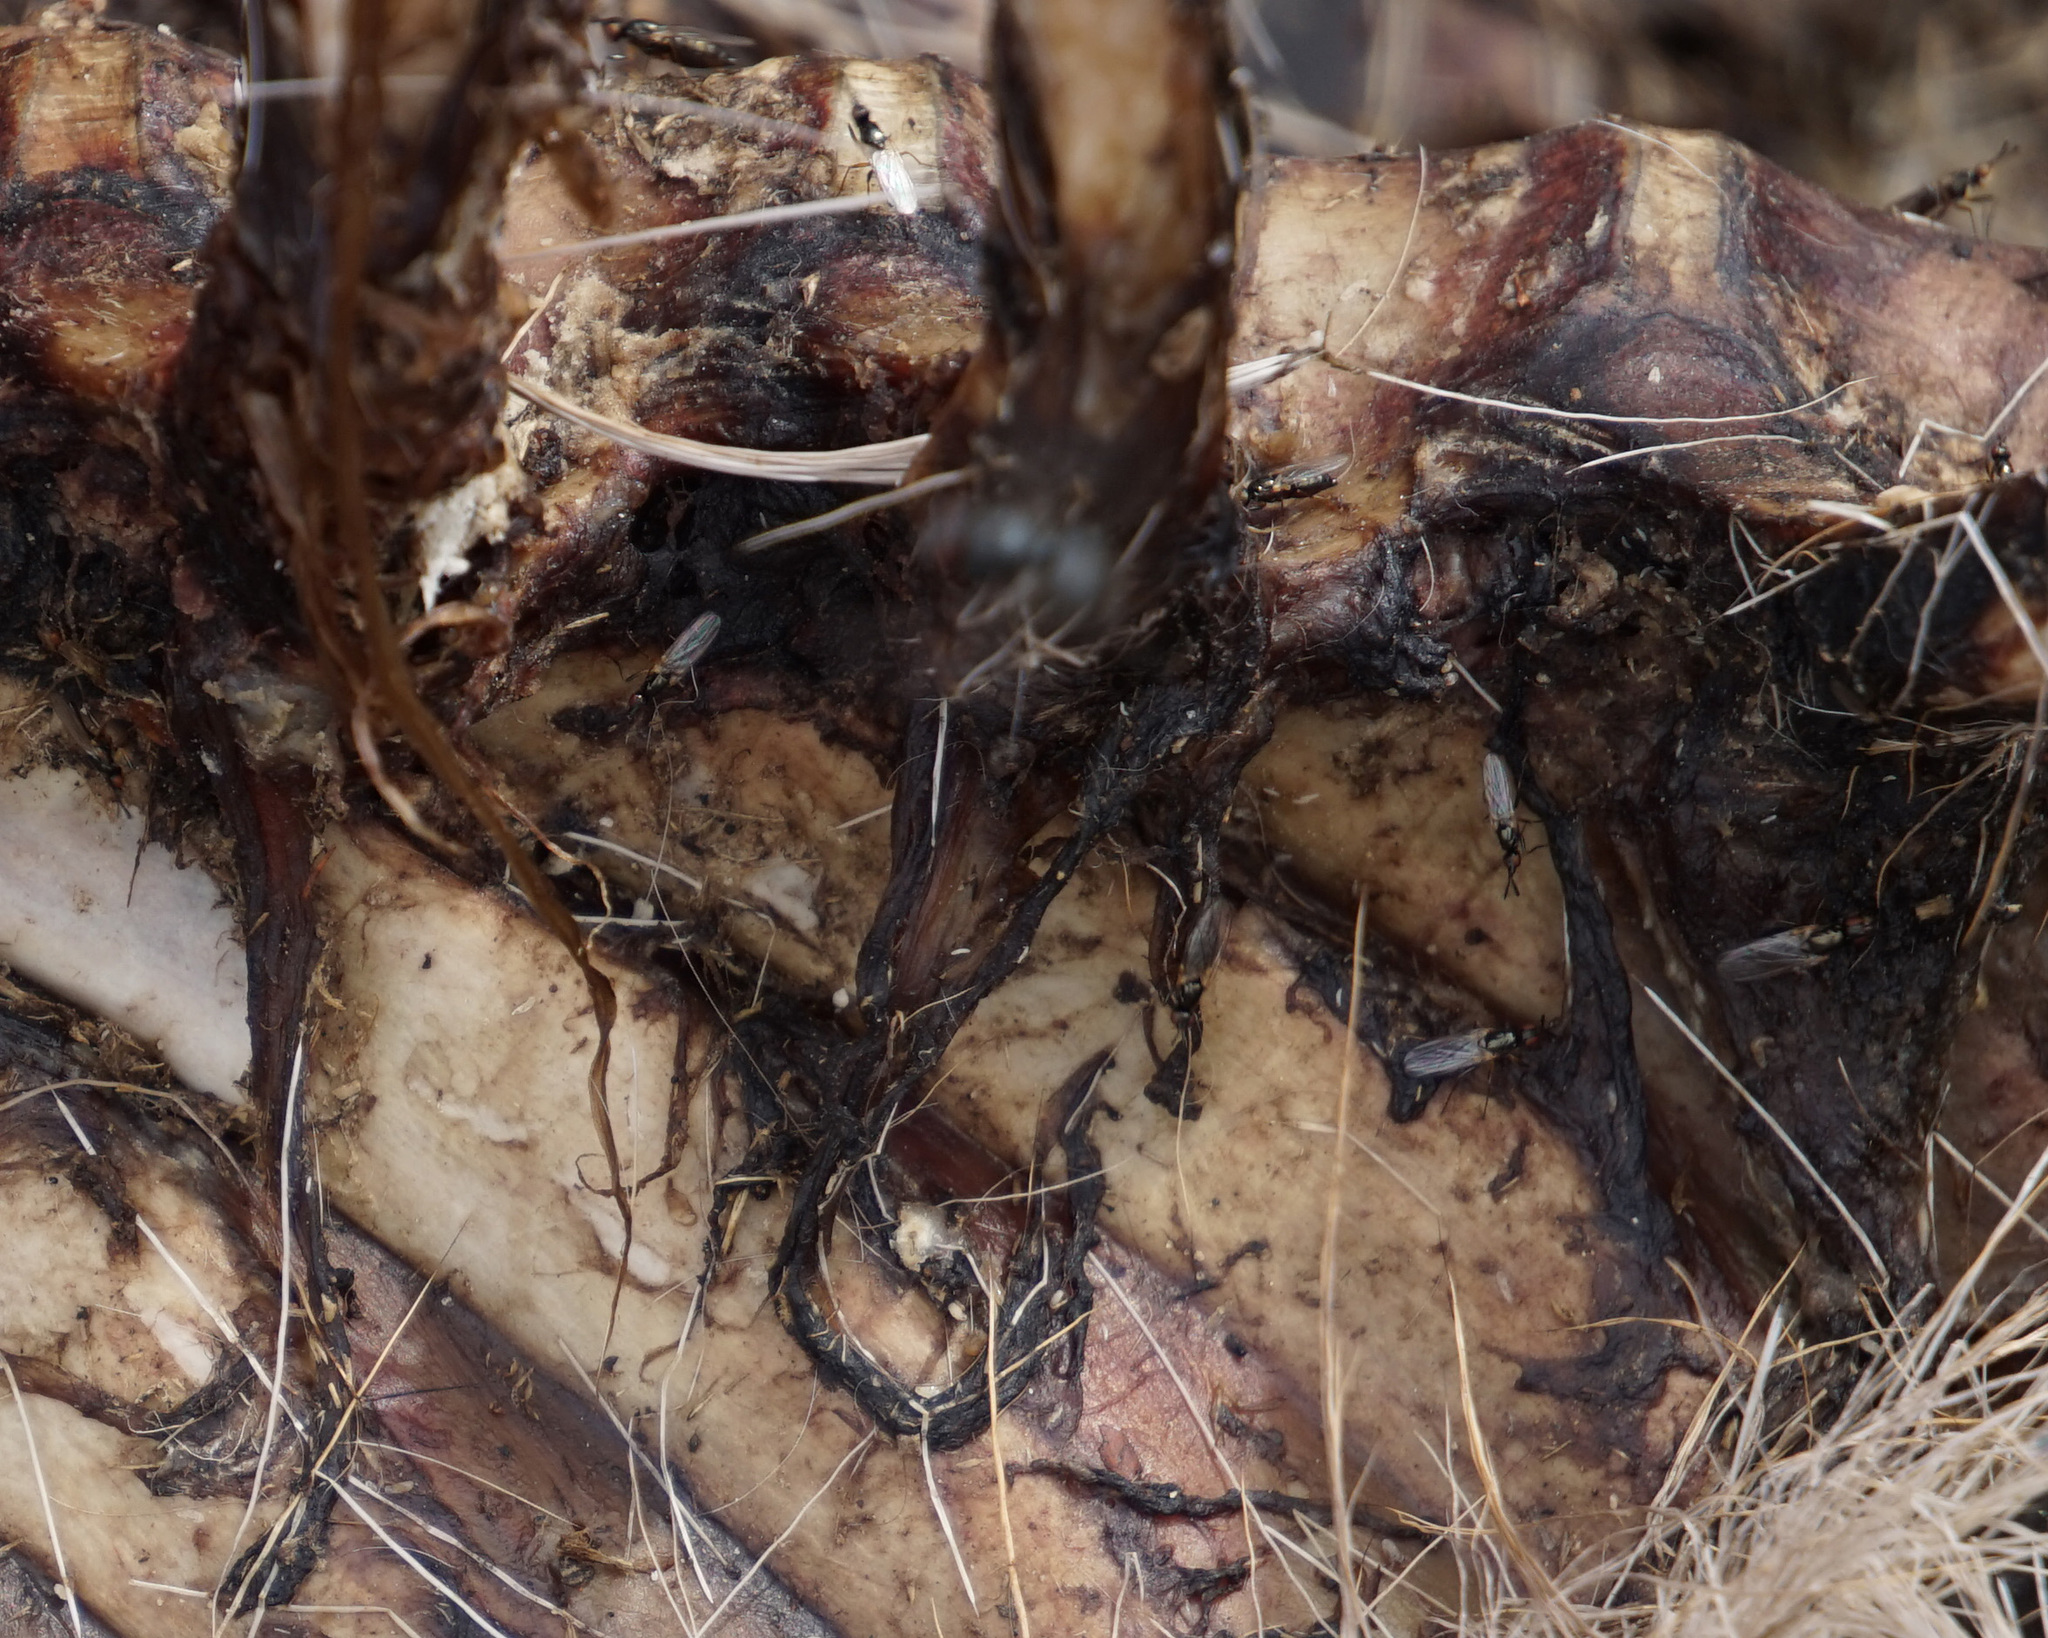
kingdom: Animalia
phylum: Arthropoda
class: Insecta
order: Diptera
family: Piophilidae
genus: Prochyliza
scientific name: Prochyliza xanthostoma
